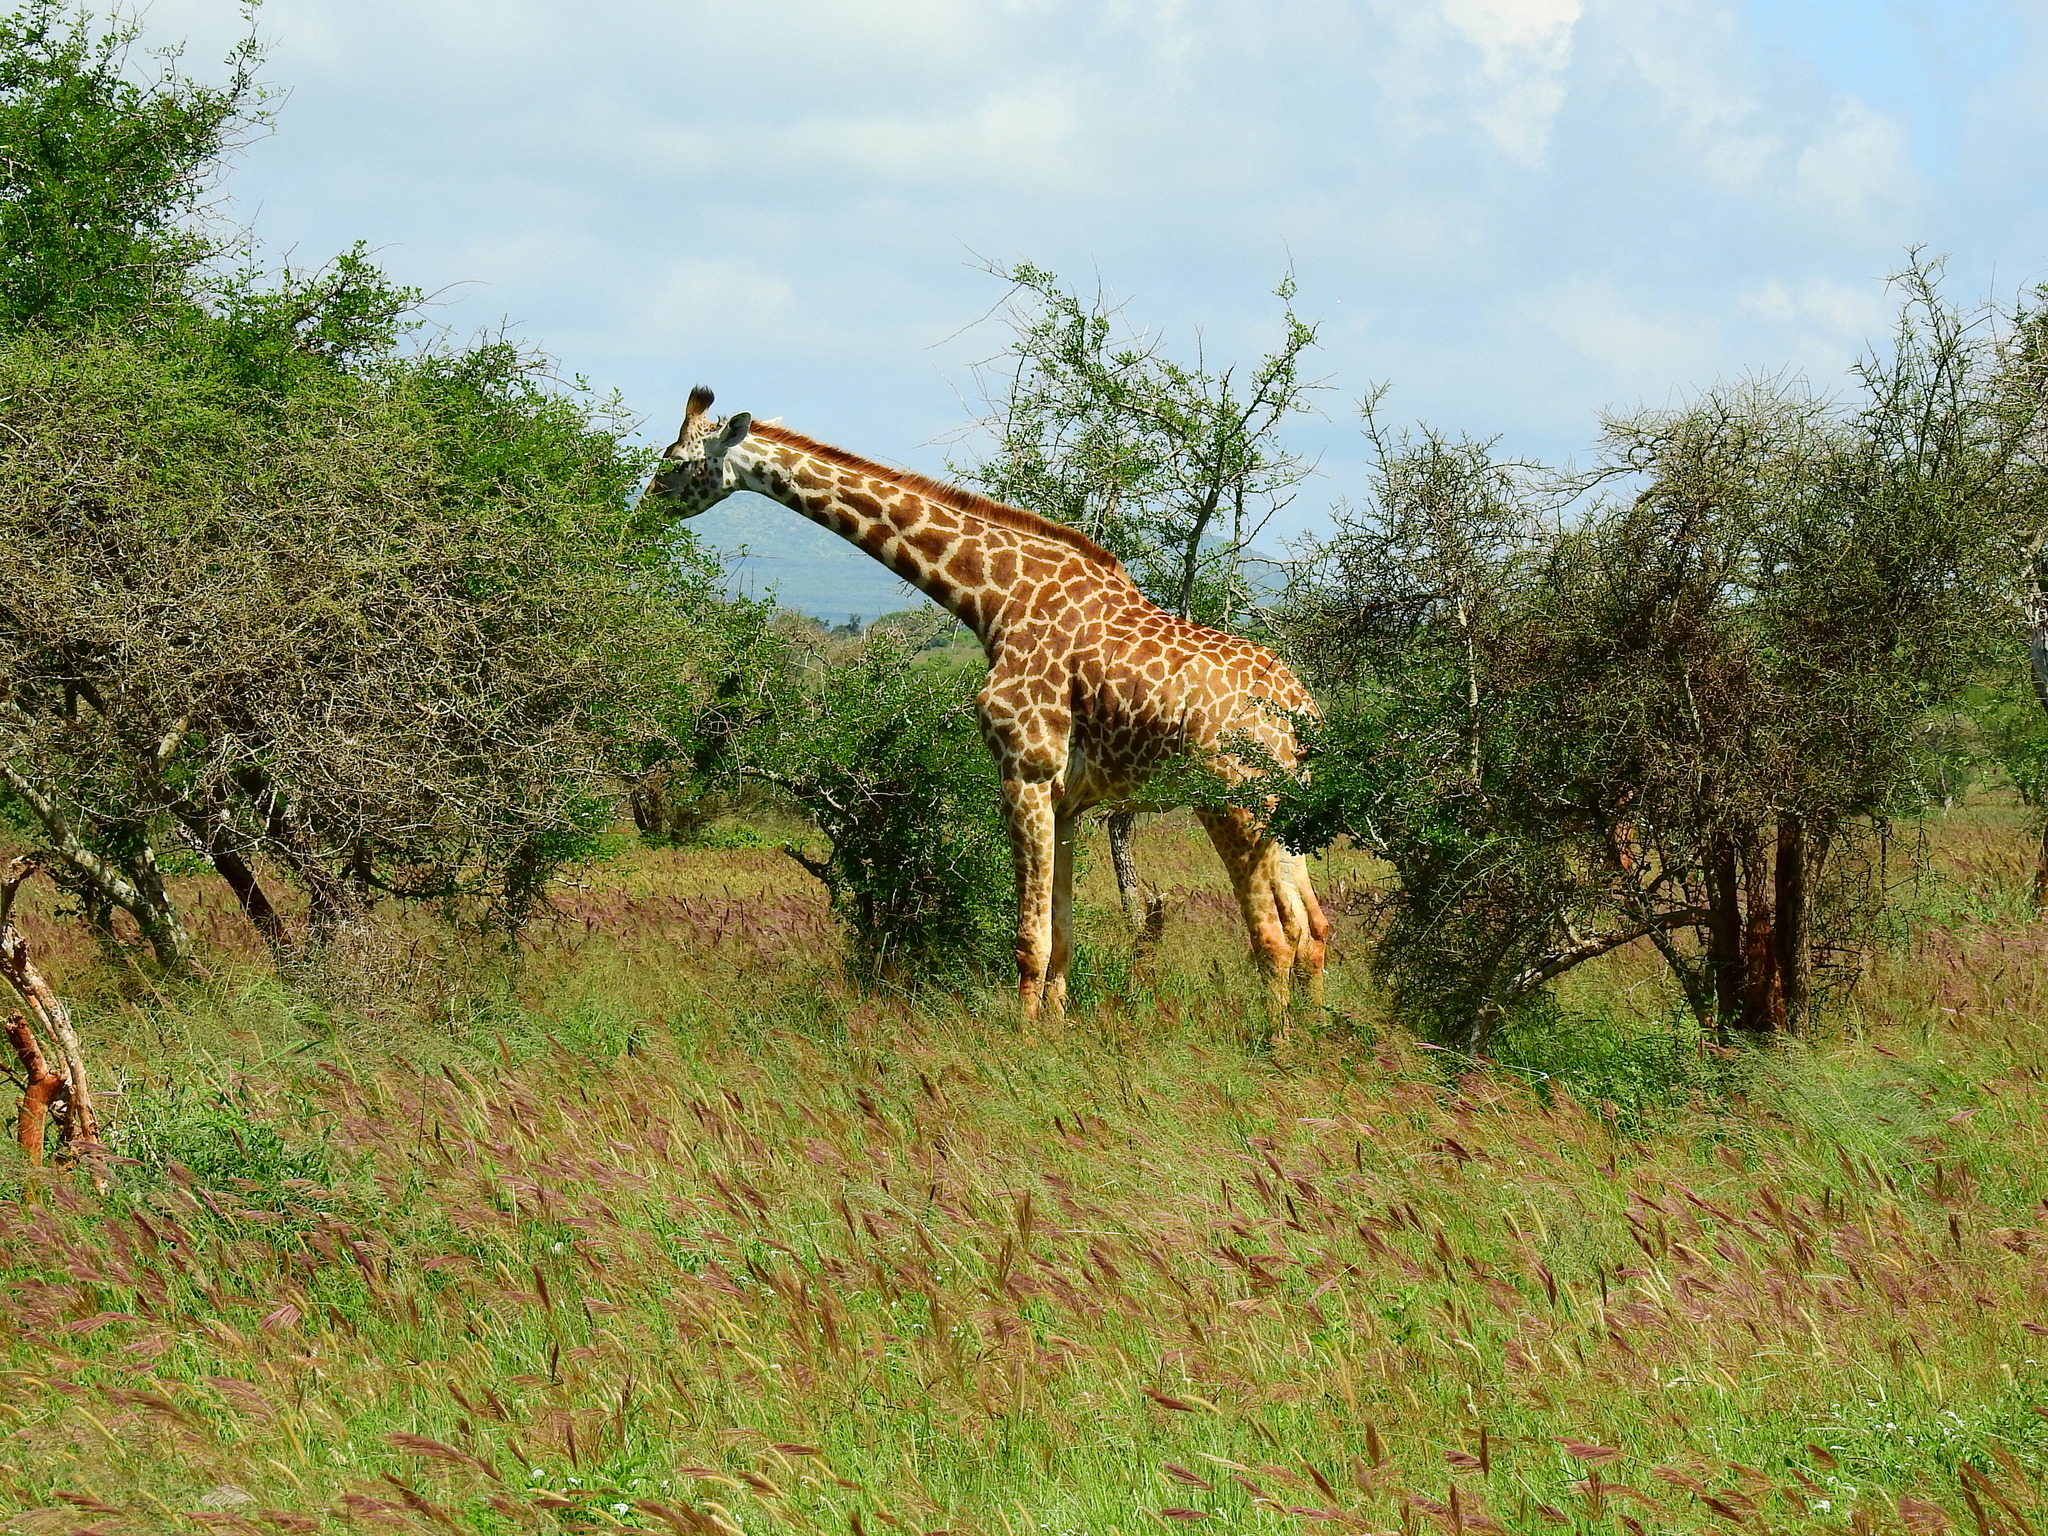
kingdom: Animalia
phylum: Chordata
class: Mammalia
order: Artiodactyla
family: Giraffidae
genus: Giraffa
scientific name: Giraffa tippelskirchi
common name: Masai giraffe
